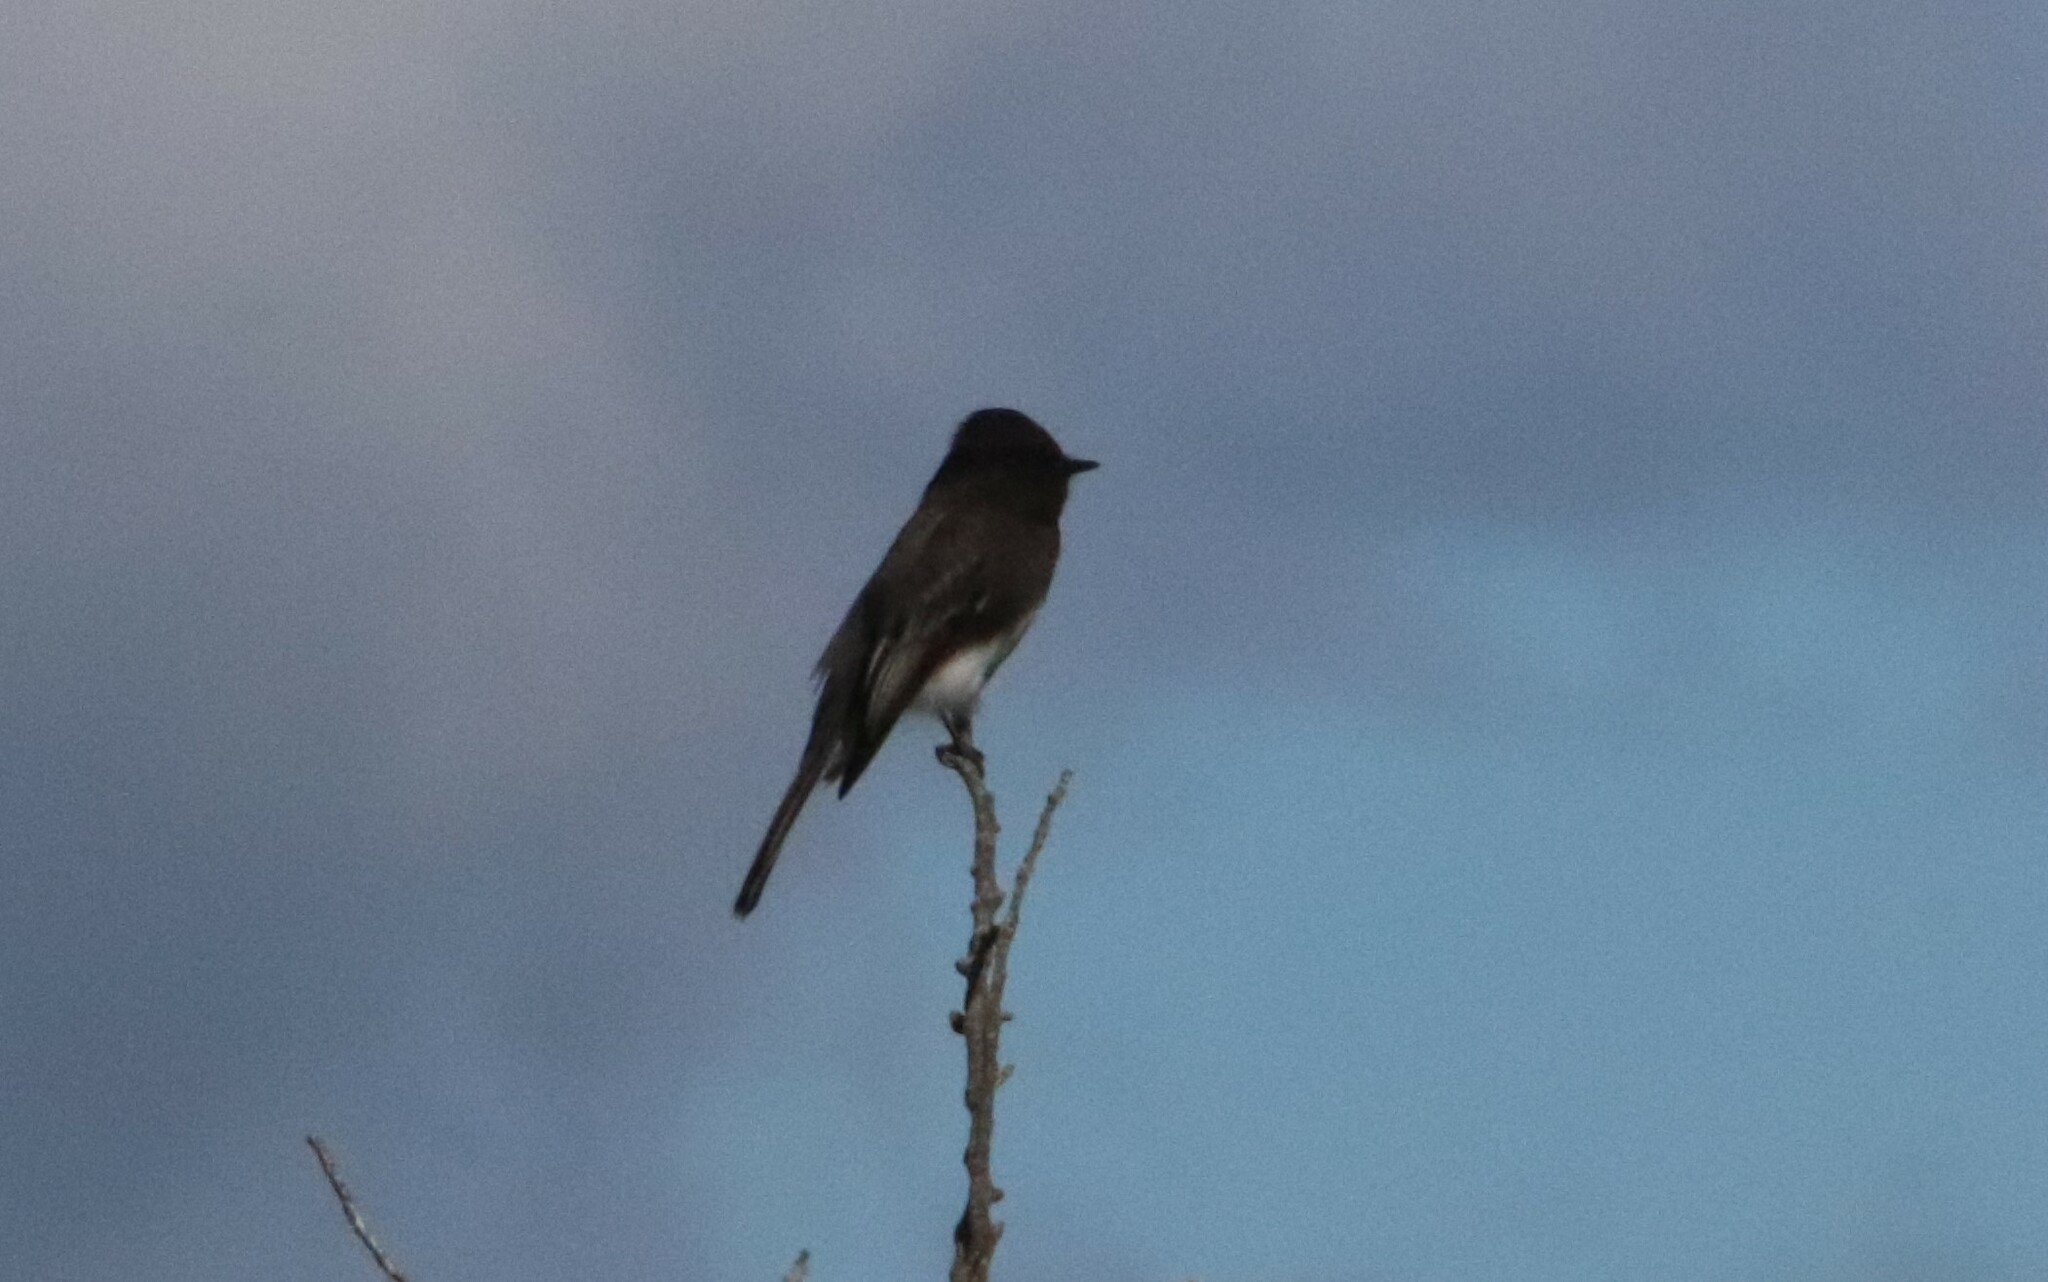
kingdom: Animalia
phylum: Chordata
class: Aves
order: Passeriformes
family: Tyrannidae
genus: Sayornis
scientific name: Sayornis nigricans
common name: Black phoebe
